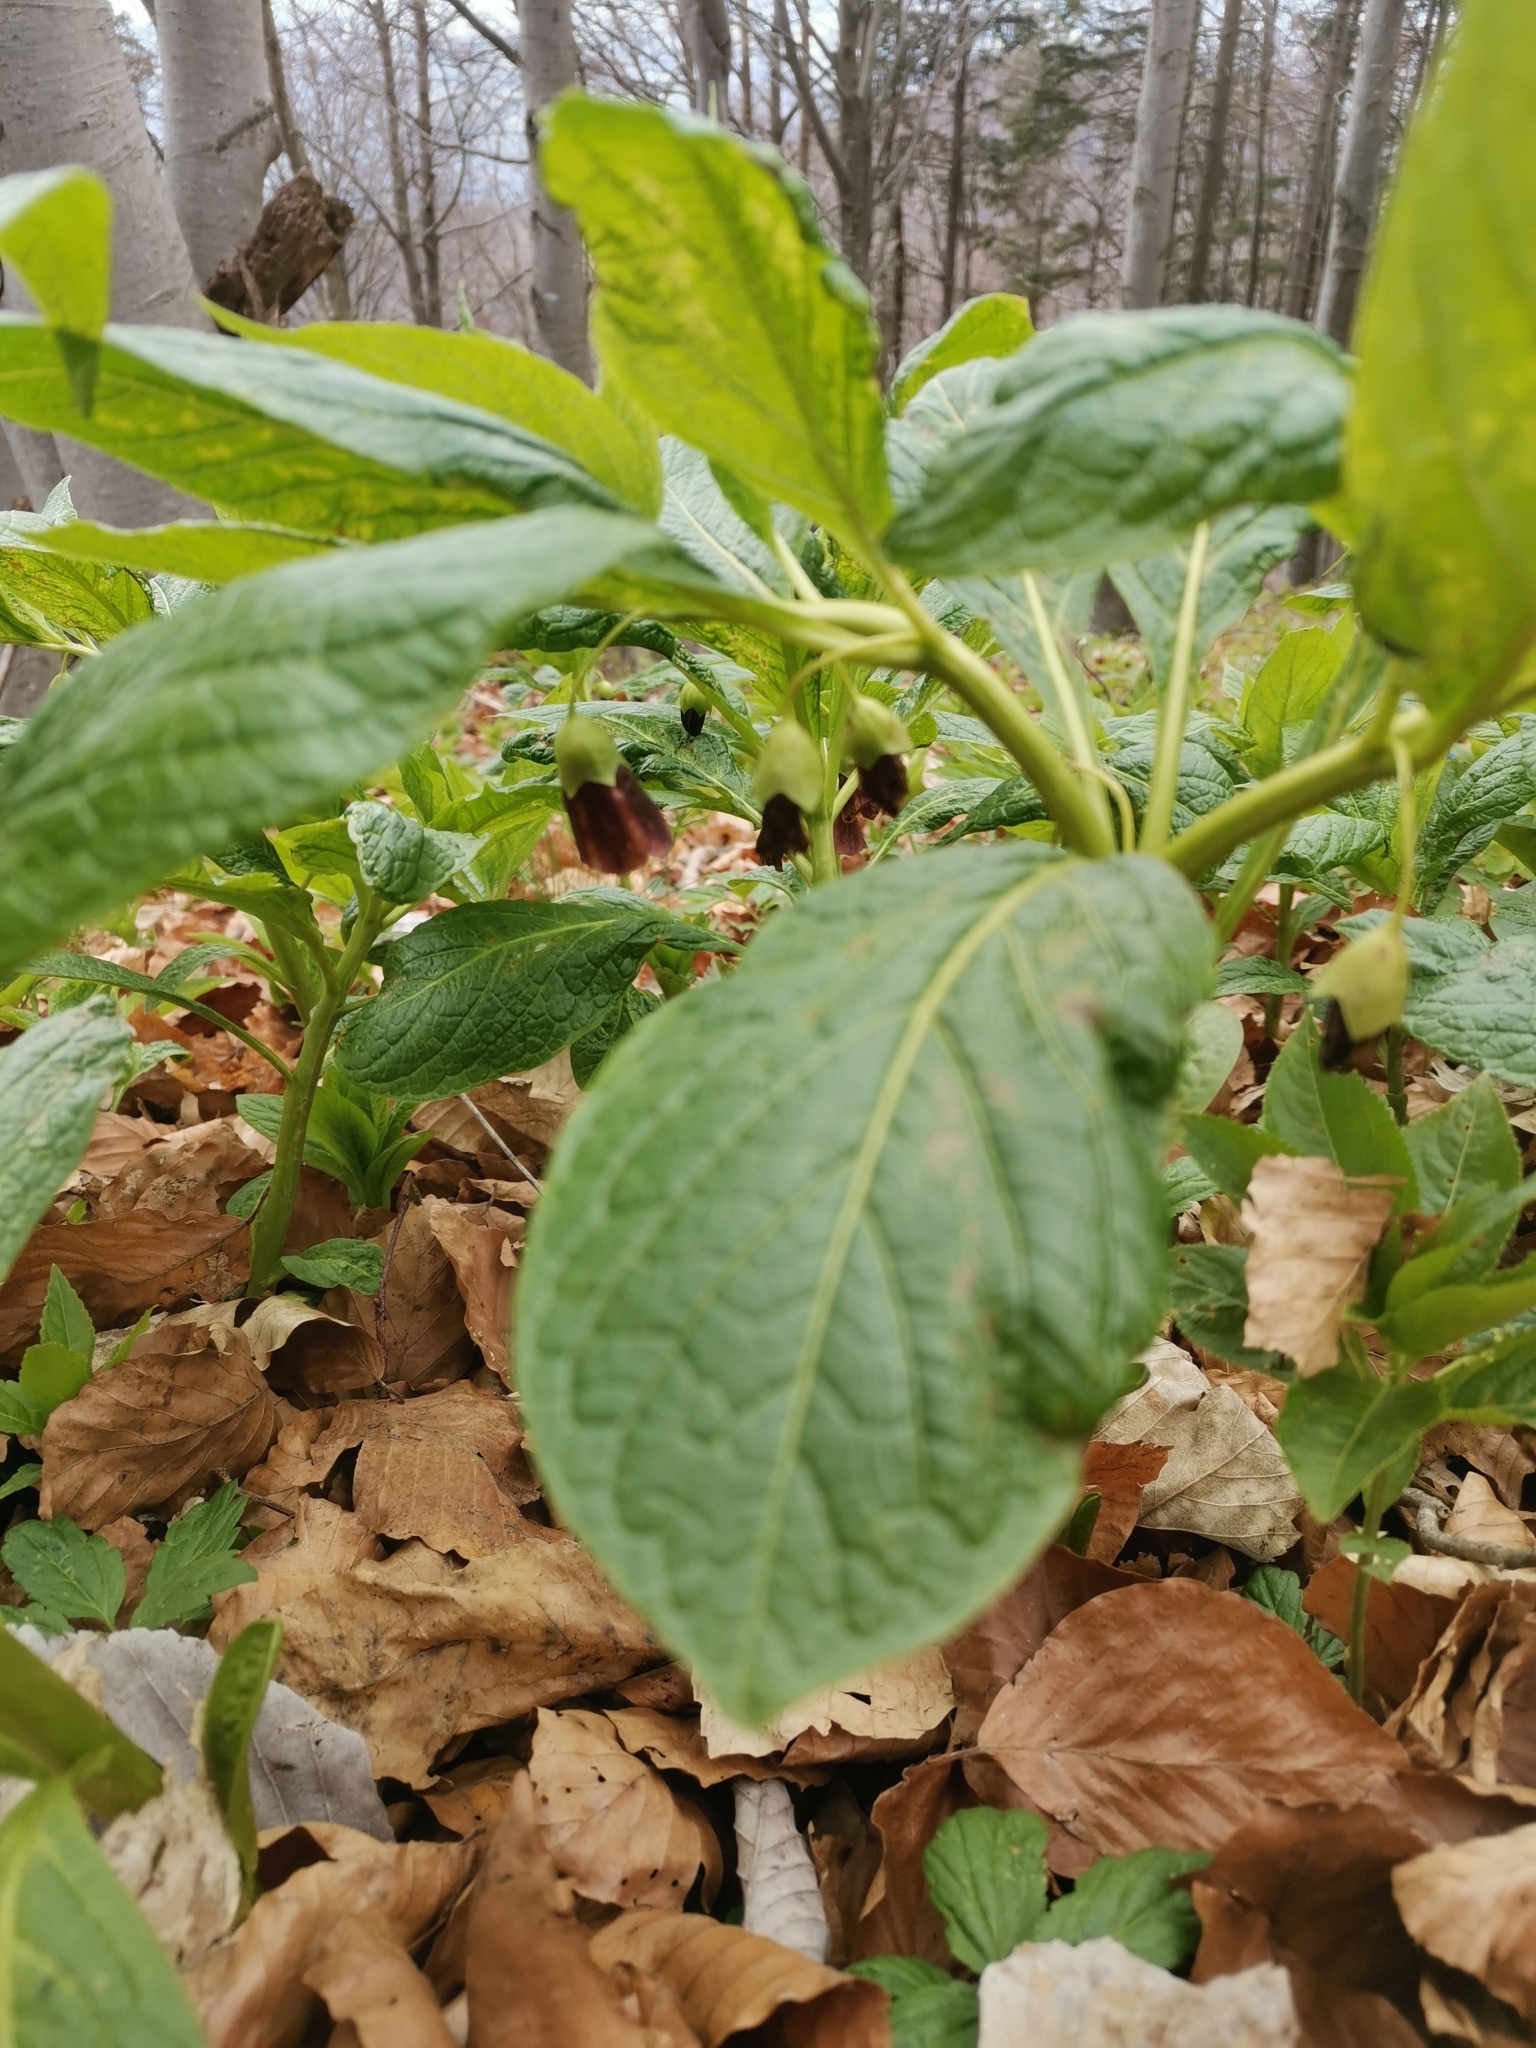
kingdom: Plantae
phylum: Tracheophyta
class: Magnoliopsida
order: Solanales
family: Solanaceae
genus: Scopolia
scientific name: Scopolia carniolica
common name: Scopolia
